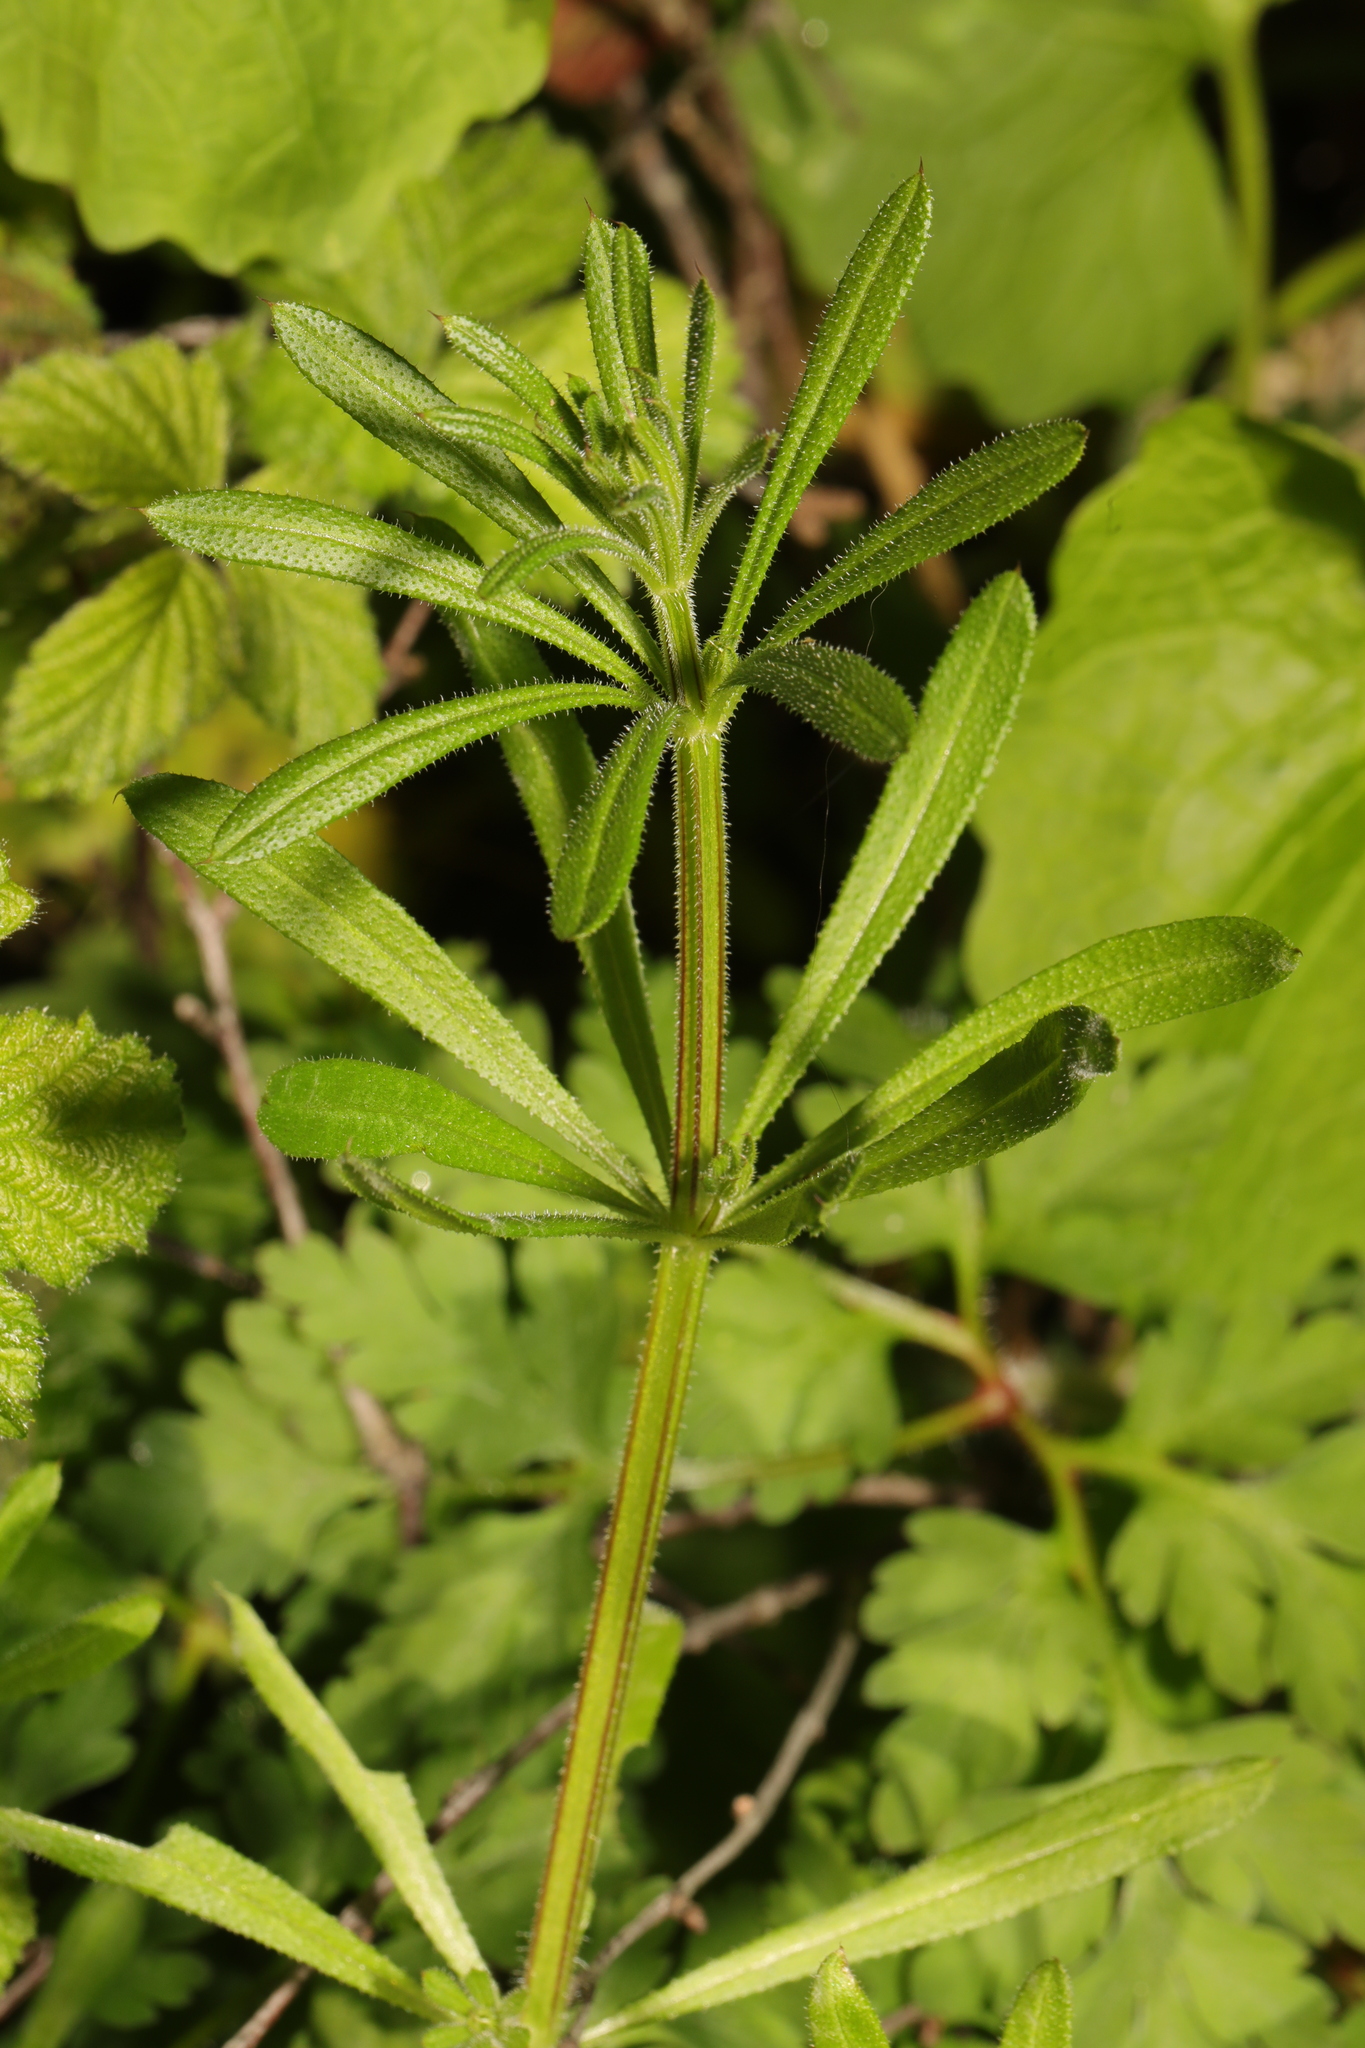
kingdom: Plantae
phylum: Tracheophyta
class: Magnoliopsida
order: Gentianales
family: Rubiaceae
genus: Galium
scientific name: Galium aparine
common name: Cleavers
